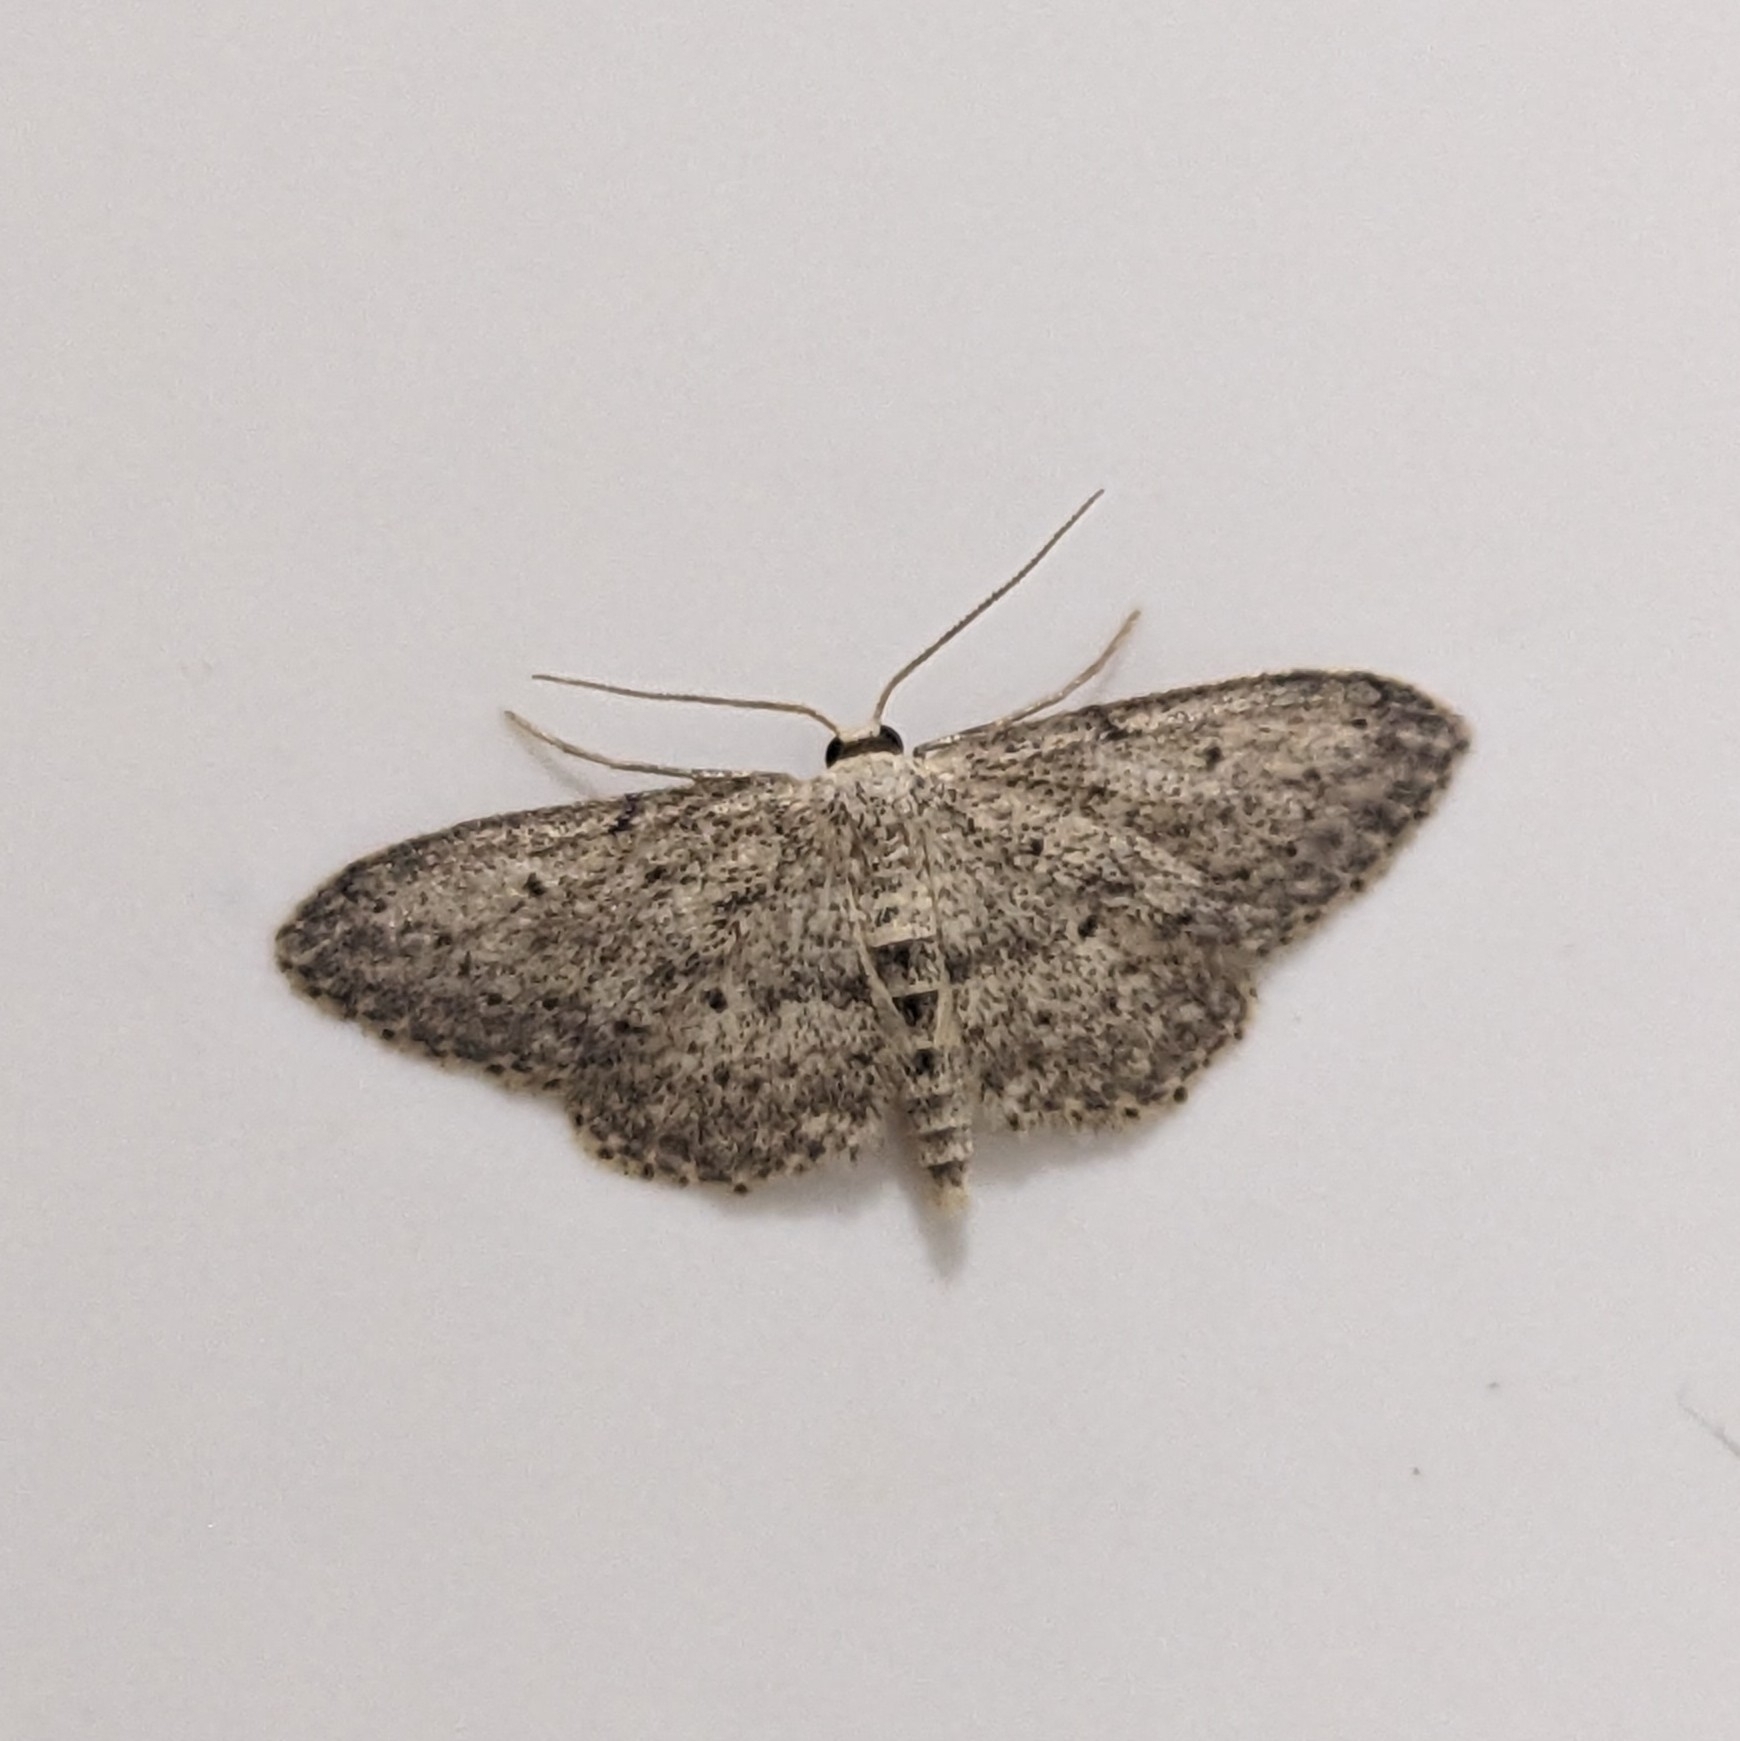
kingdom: Animalia
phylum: Arthropoda
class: Insecta
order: Lepidoptera
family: Geometridae
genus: Idaea
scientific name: Idaea seriata
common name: Small dusty wave
